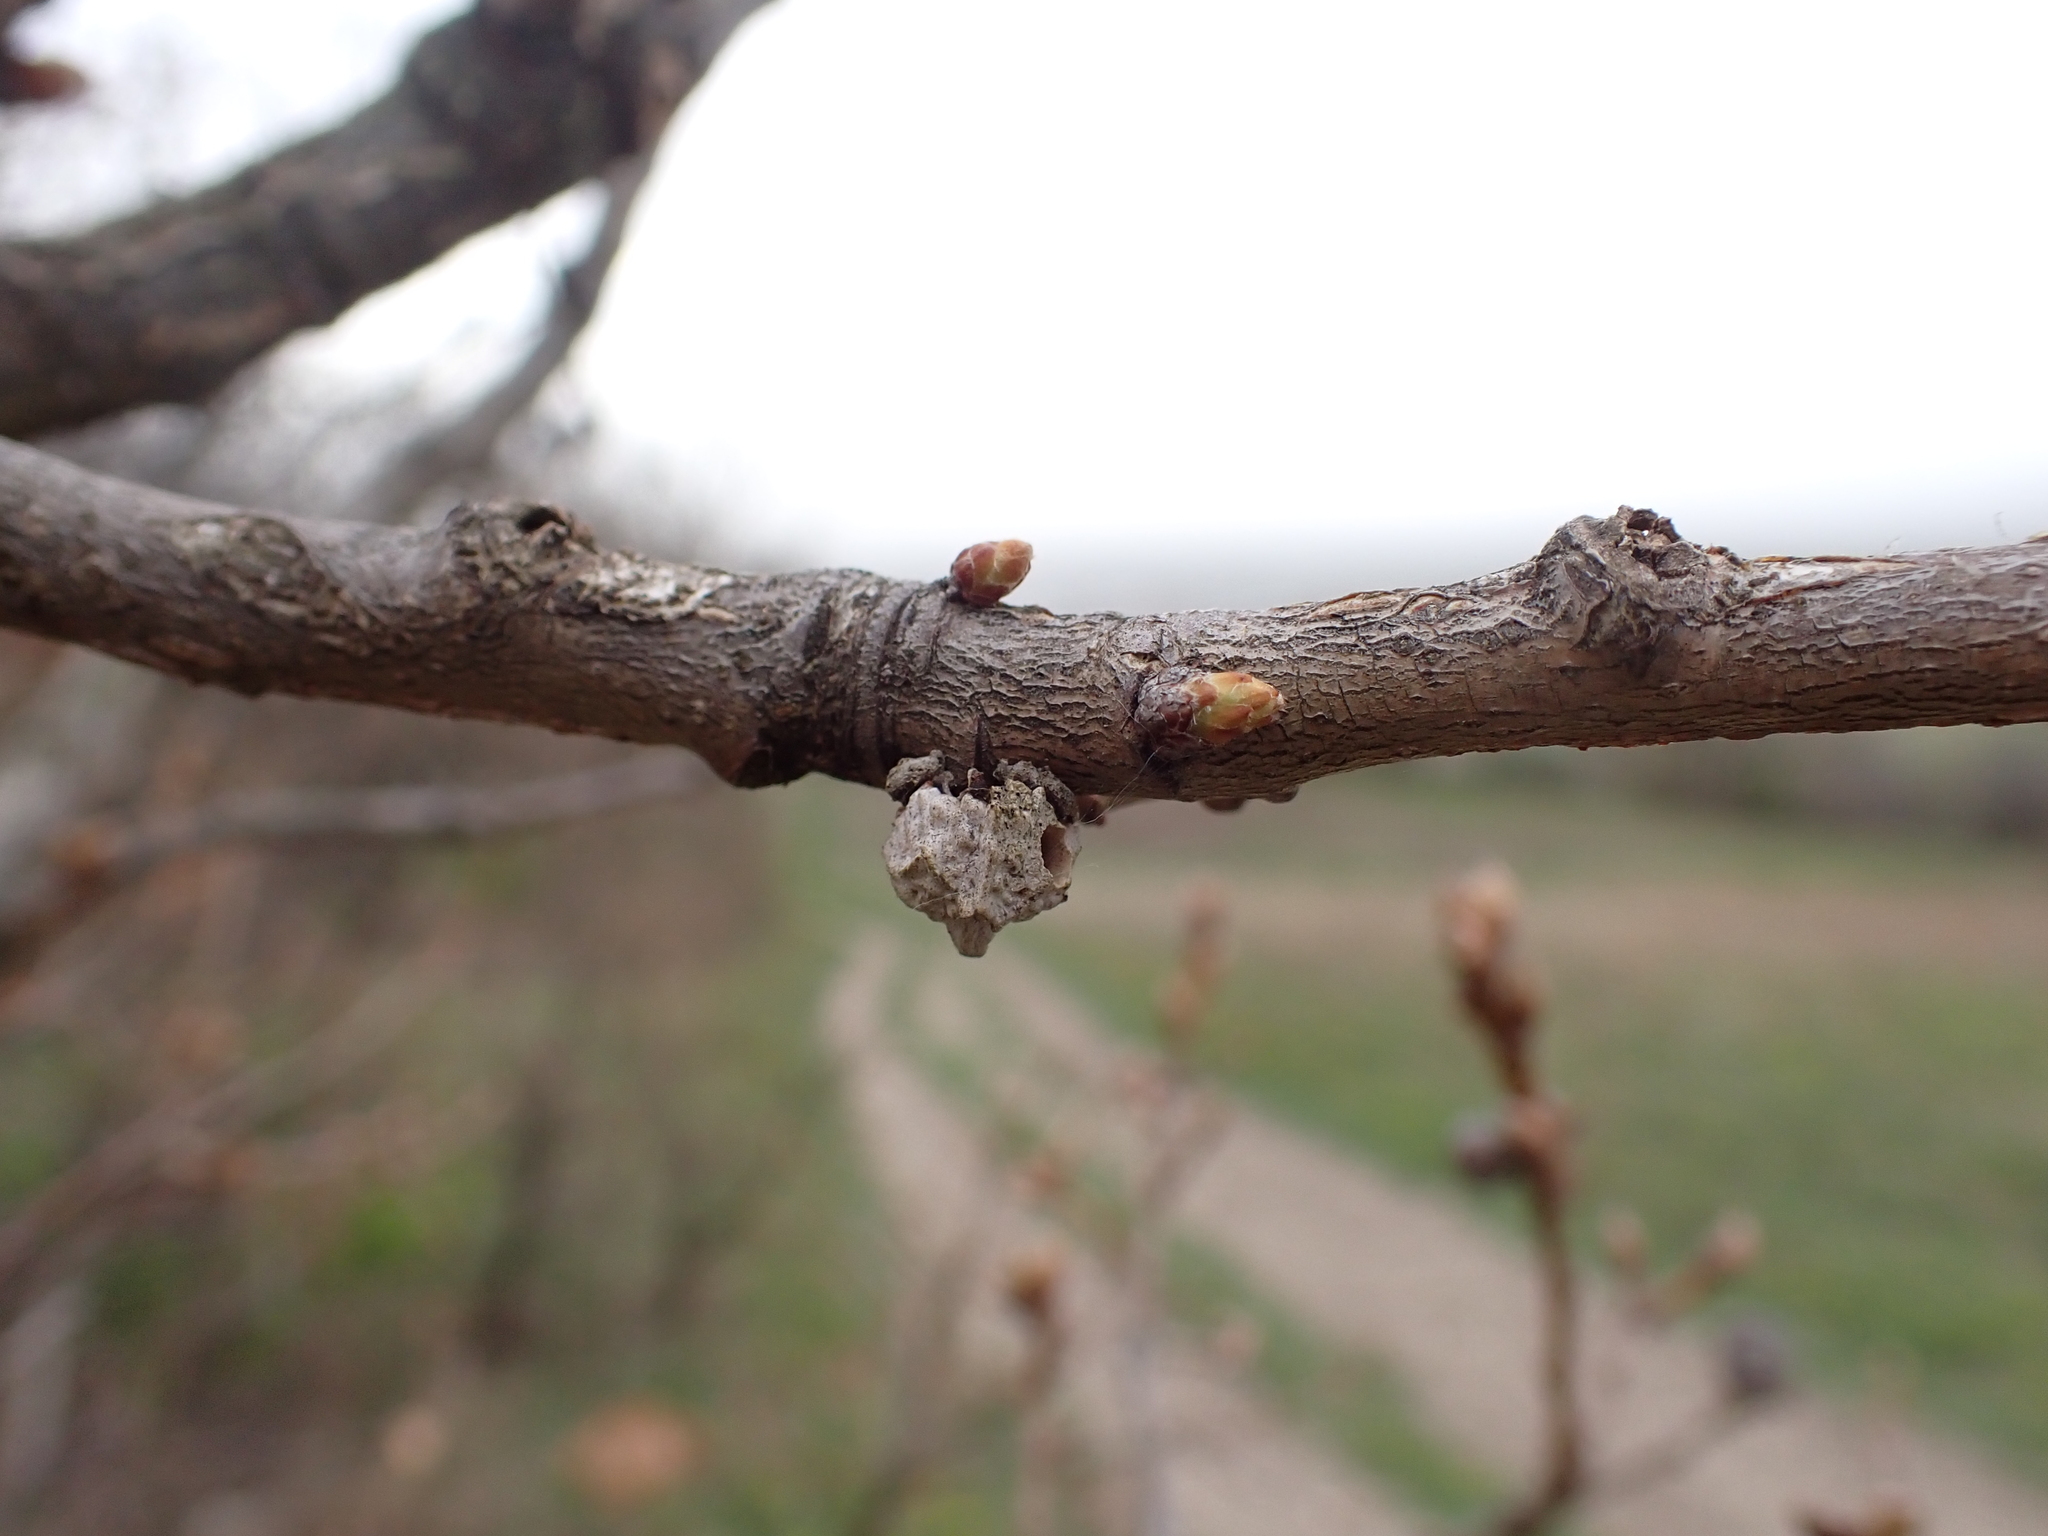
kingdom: Animalia
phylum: Arthropoda
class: Insecta
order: Hymenoptera
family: Cynipidae
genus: Andricus
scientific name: Andricus truncicola
